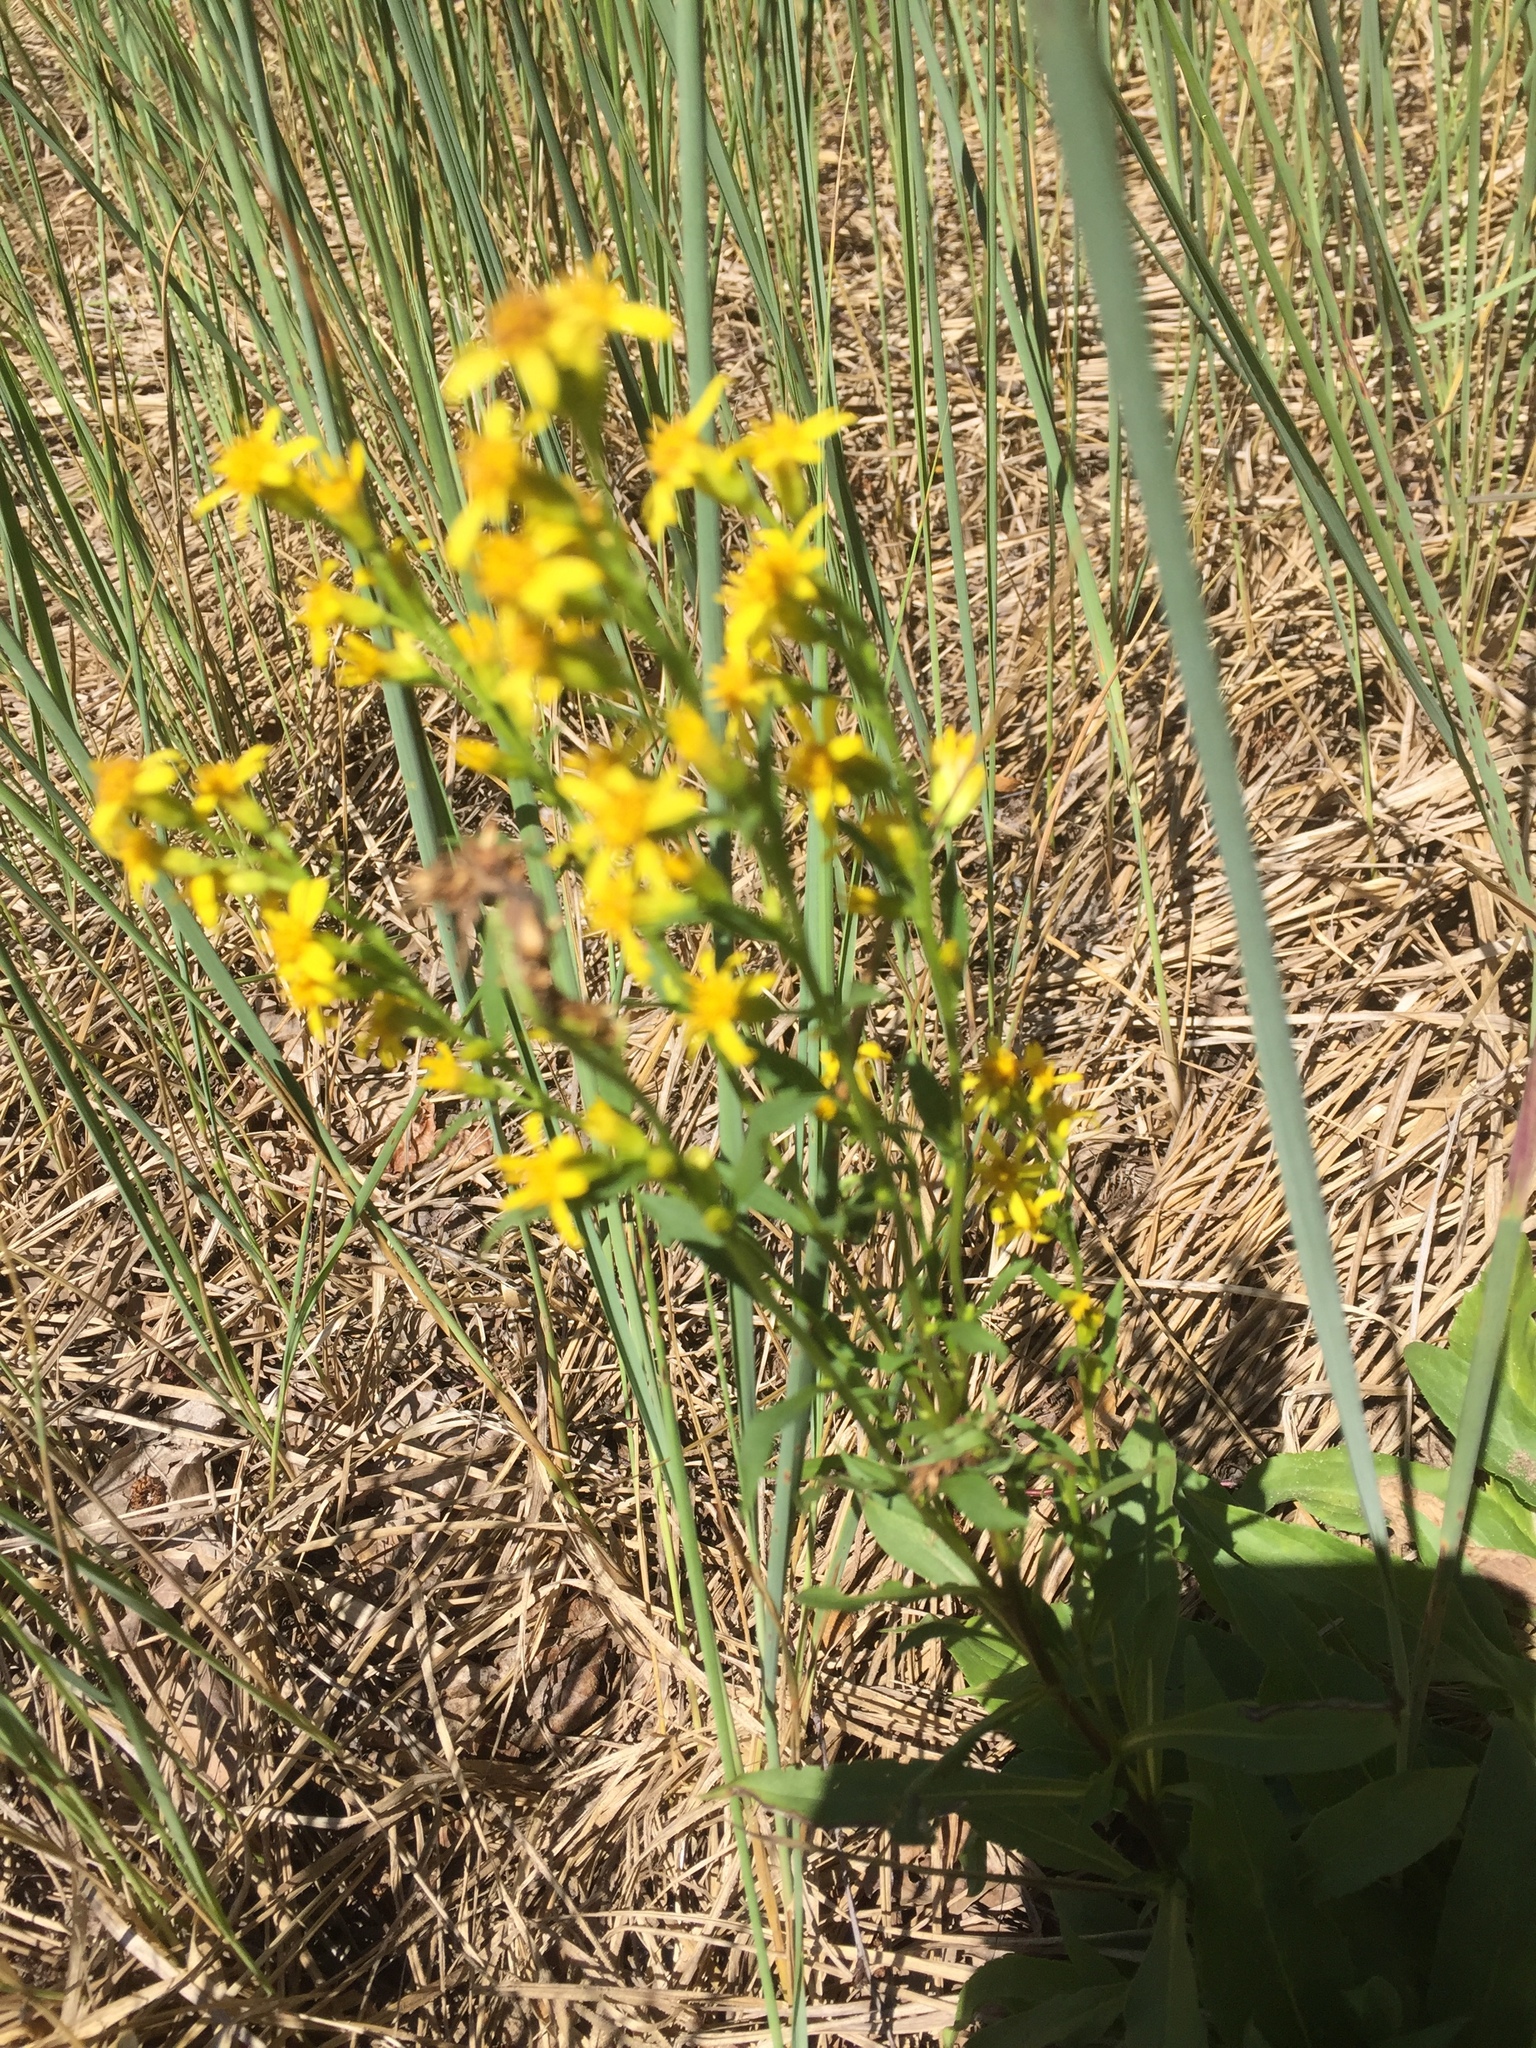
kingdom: Plantae
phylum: Tracheophyta
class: Magnoliopsida
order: Asterales
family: Asteraceae
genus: Solidago
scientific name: Solidago virgaurea
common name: Goldenrod
